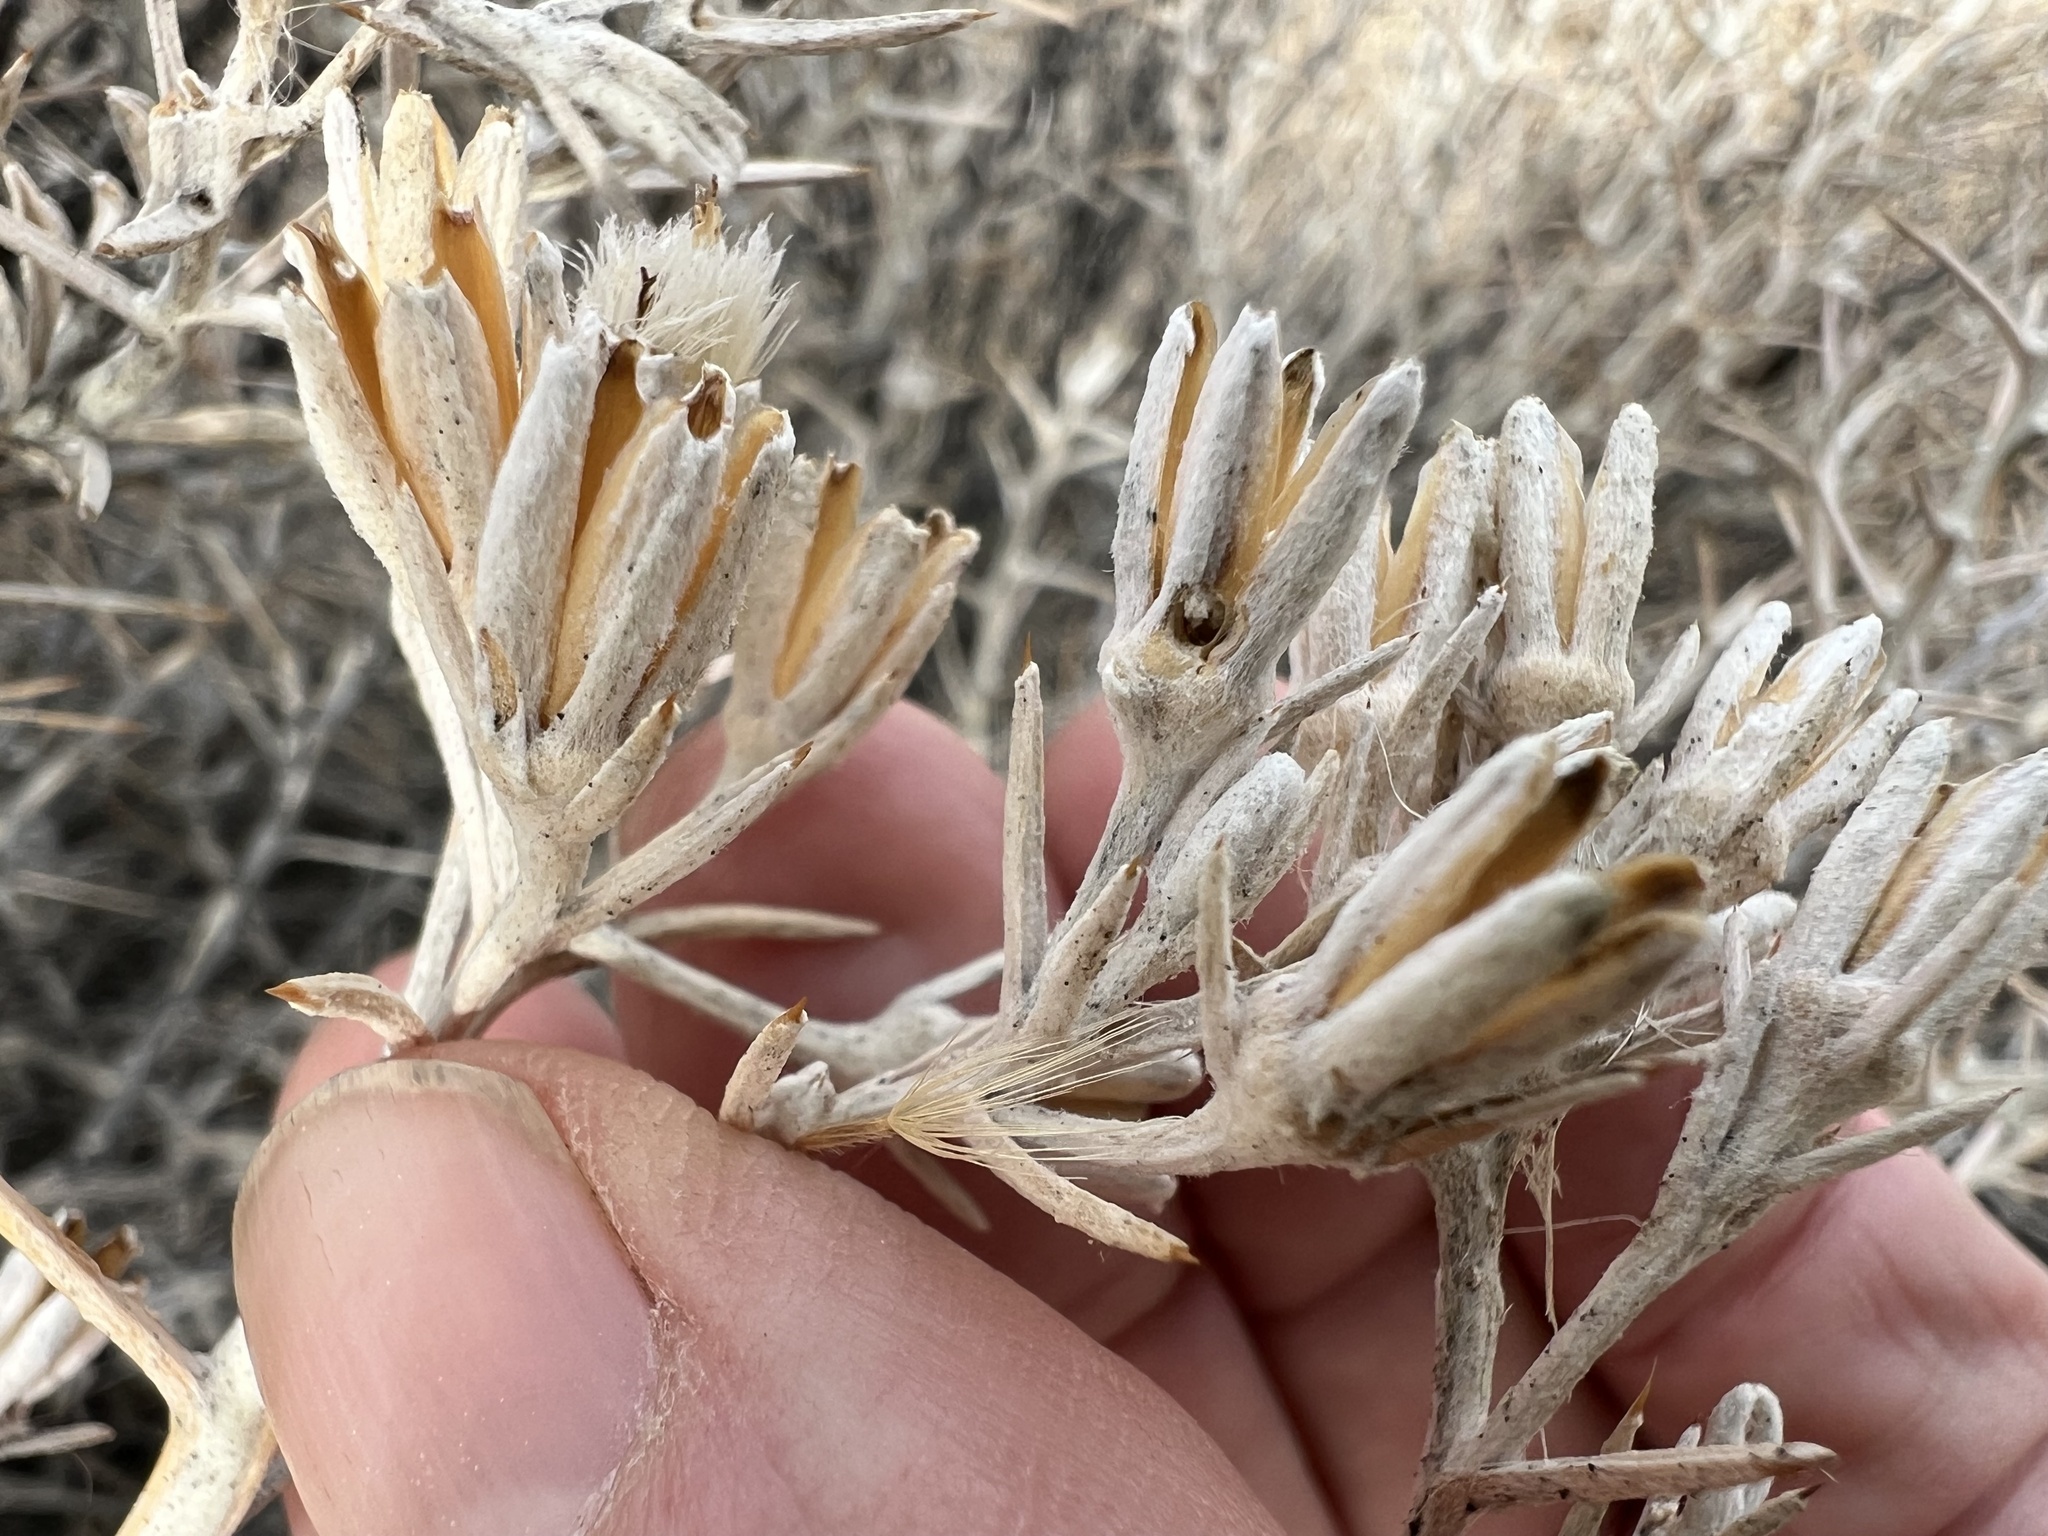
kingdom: Plantae
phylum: Tracheophyta
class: Magnoliopsida
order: Asterales
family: Asteraceae
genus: Tetradymia
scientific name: Tetradymia stenolepis
